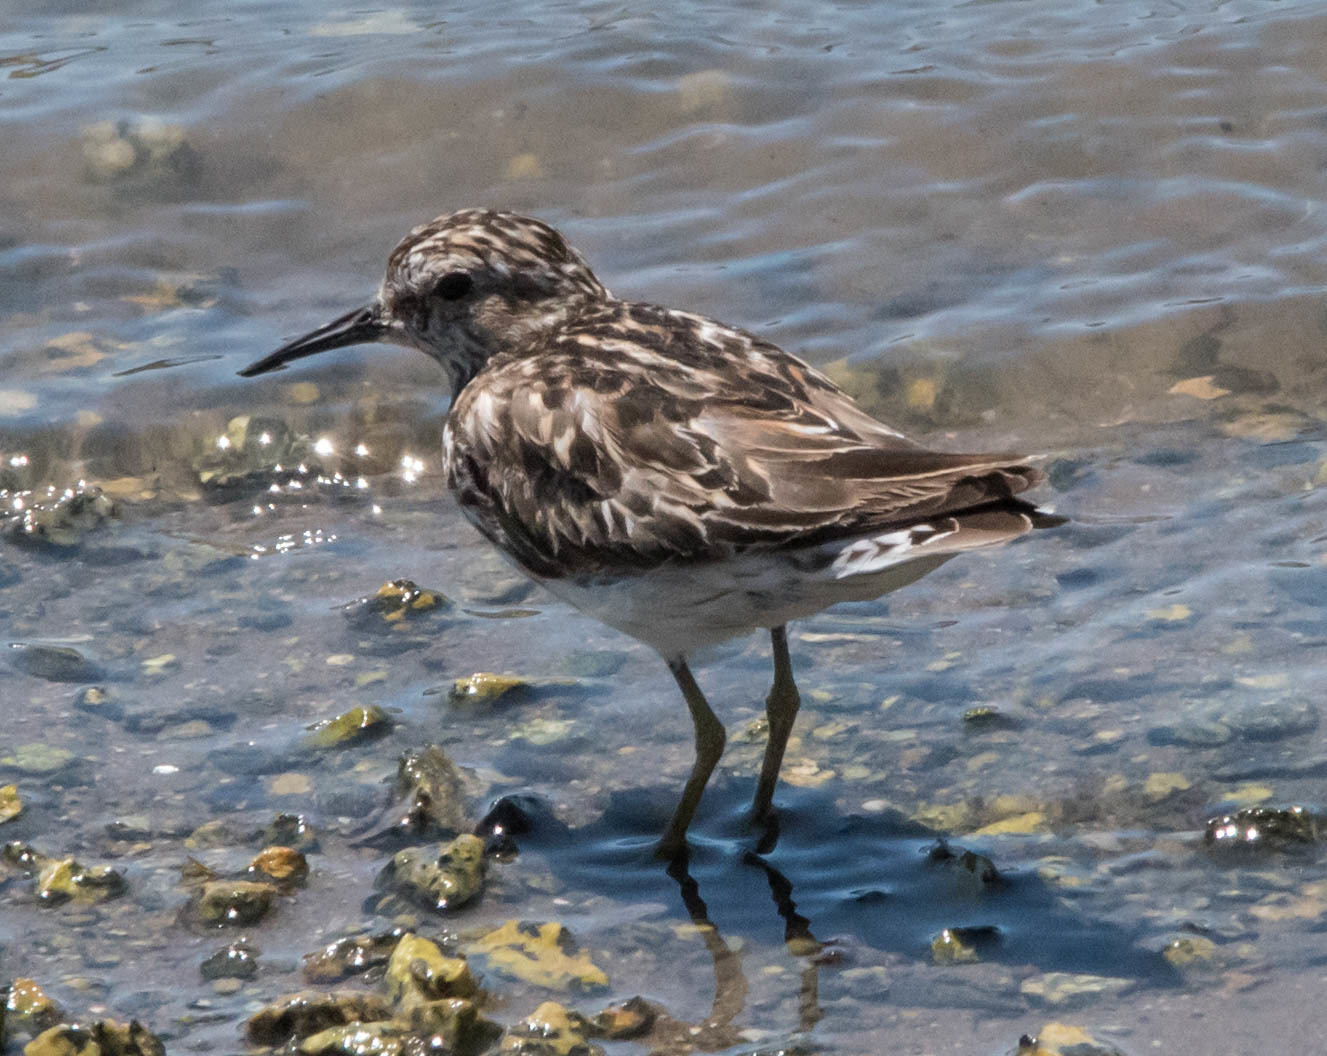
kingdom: Animalia
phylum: Chordata
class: Aves
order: Charadriiformes
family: Scolopacidae
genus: Calidris
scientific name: Calidris minutilla
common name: Least sandpiper
